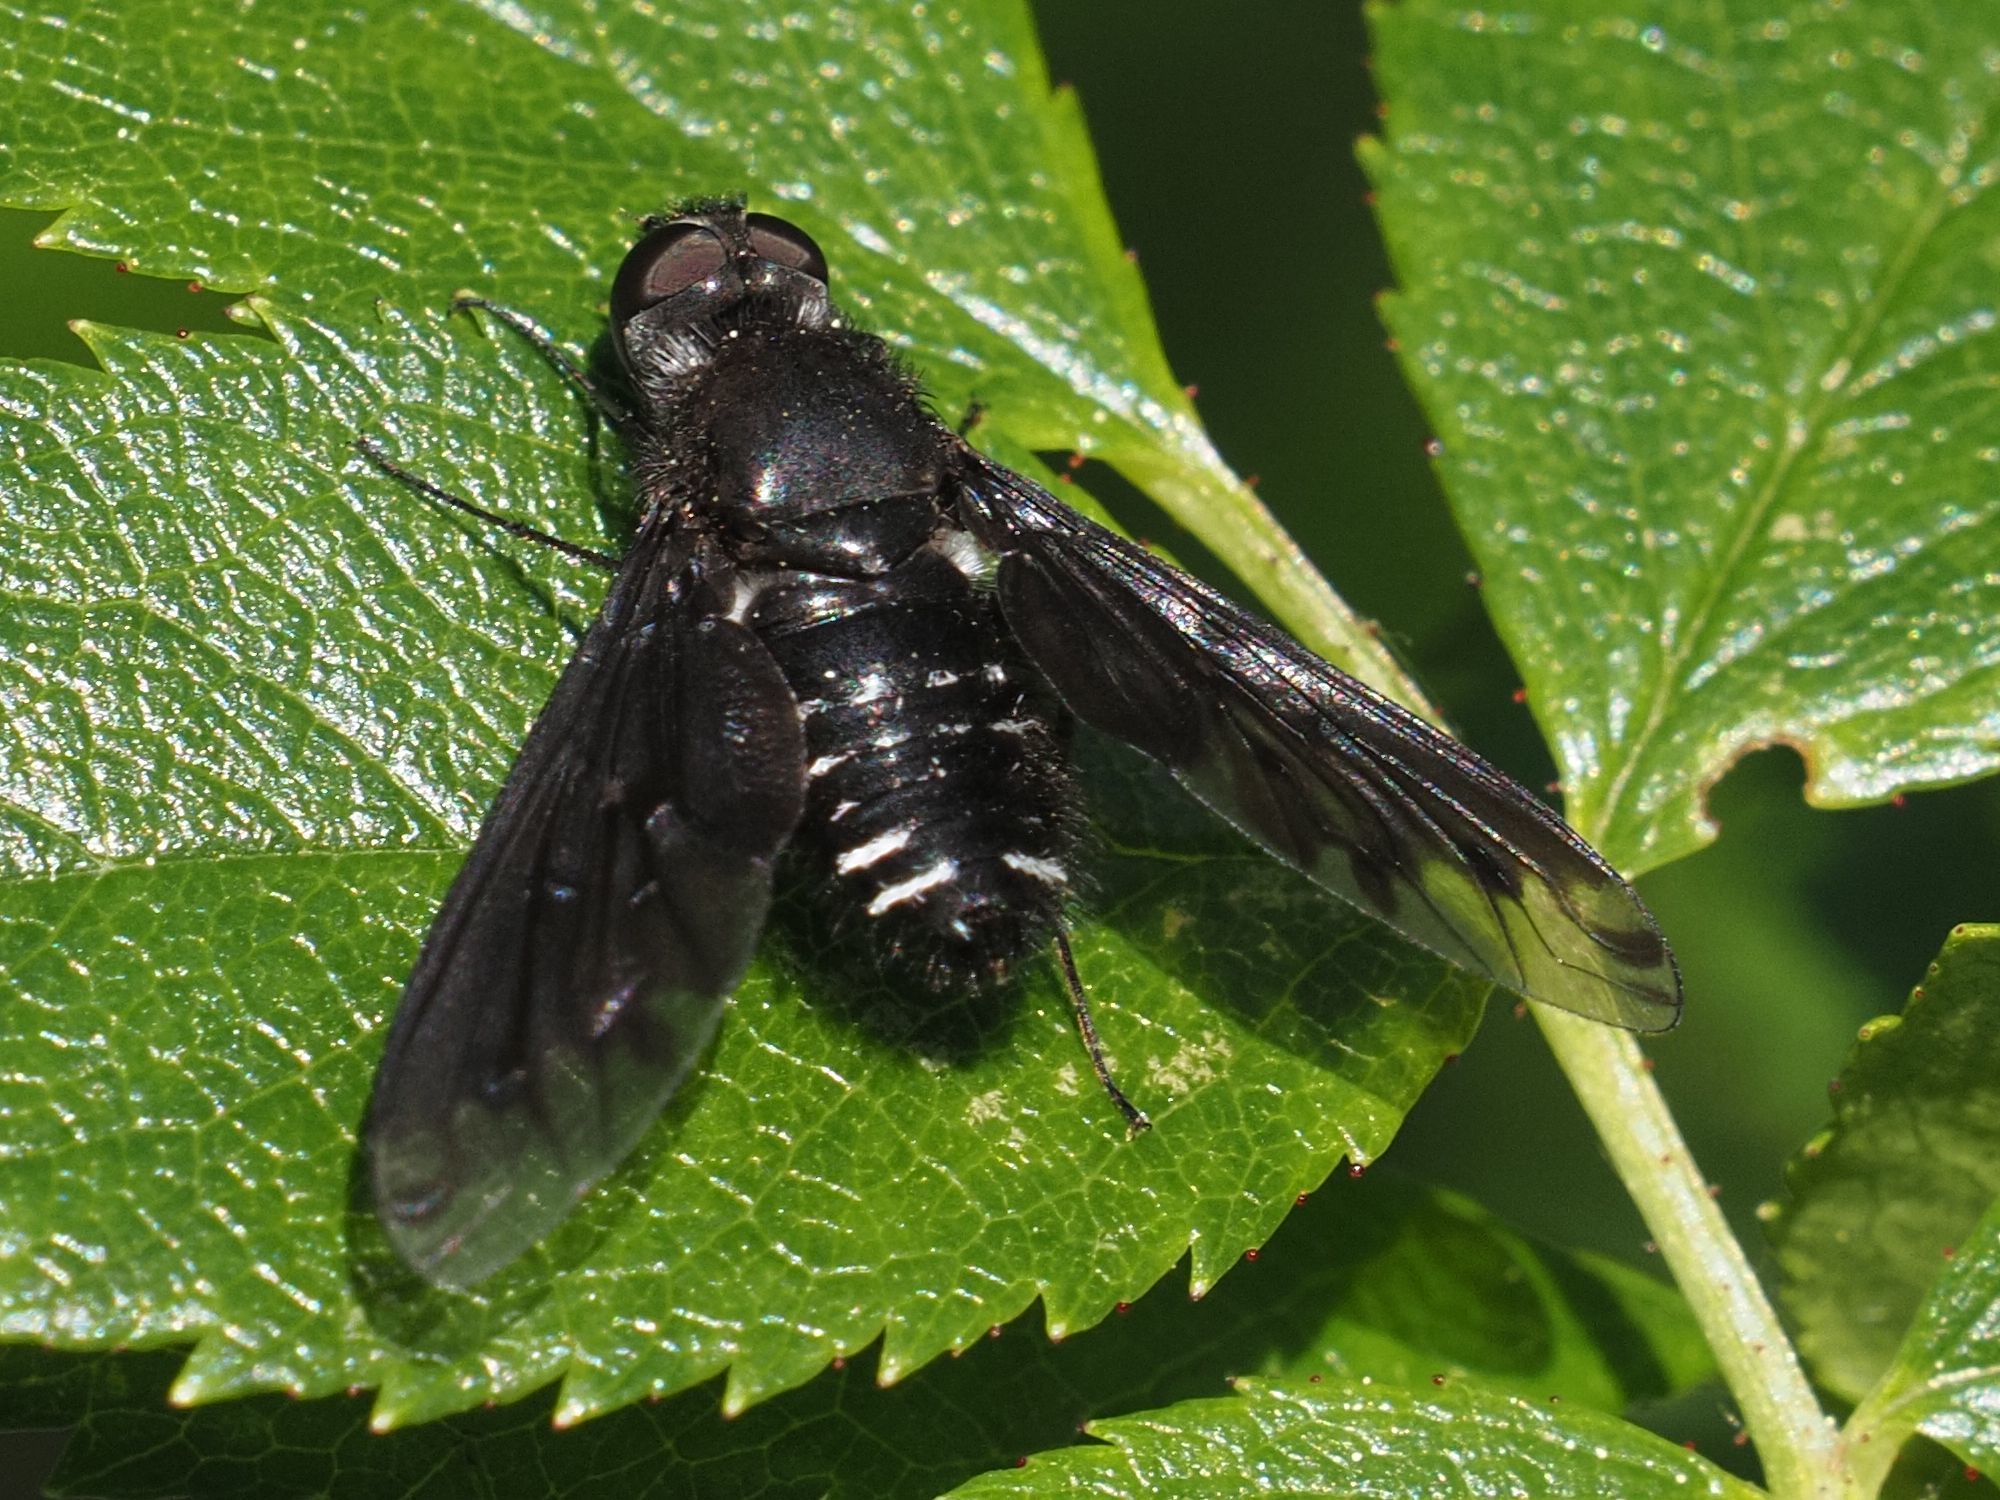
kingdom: Animalia
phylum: Arthropoda
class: Insecta
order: Diptera
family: Bombyliidae
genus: Anthrax
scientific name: Anthrax anthrax
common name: Anthracite bee-fly
